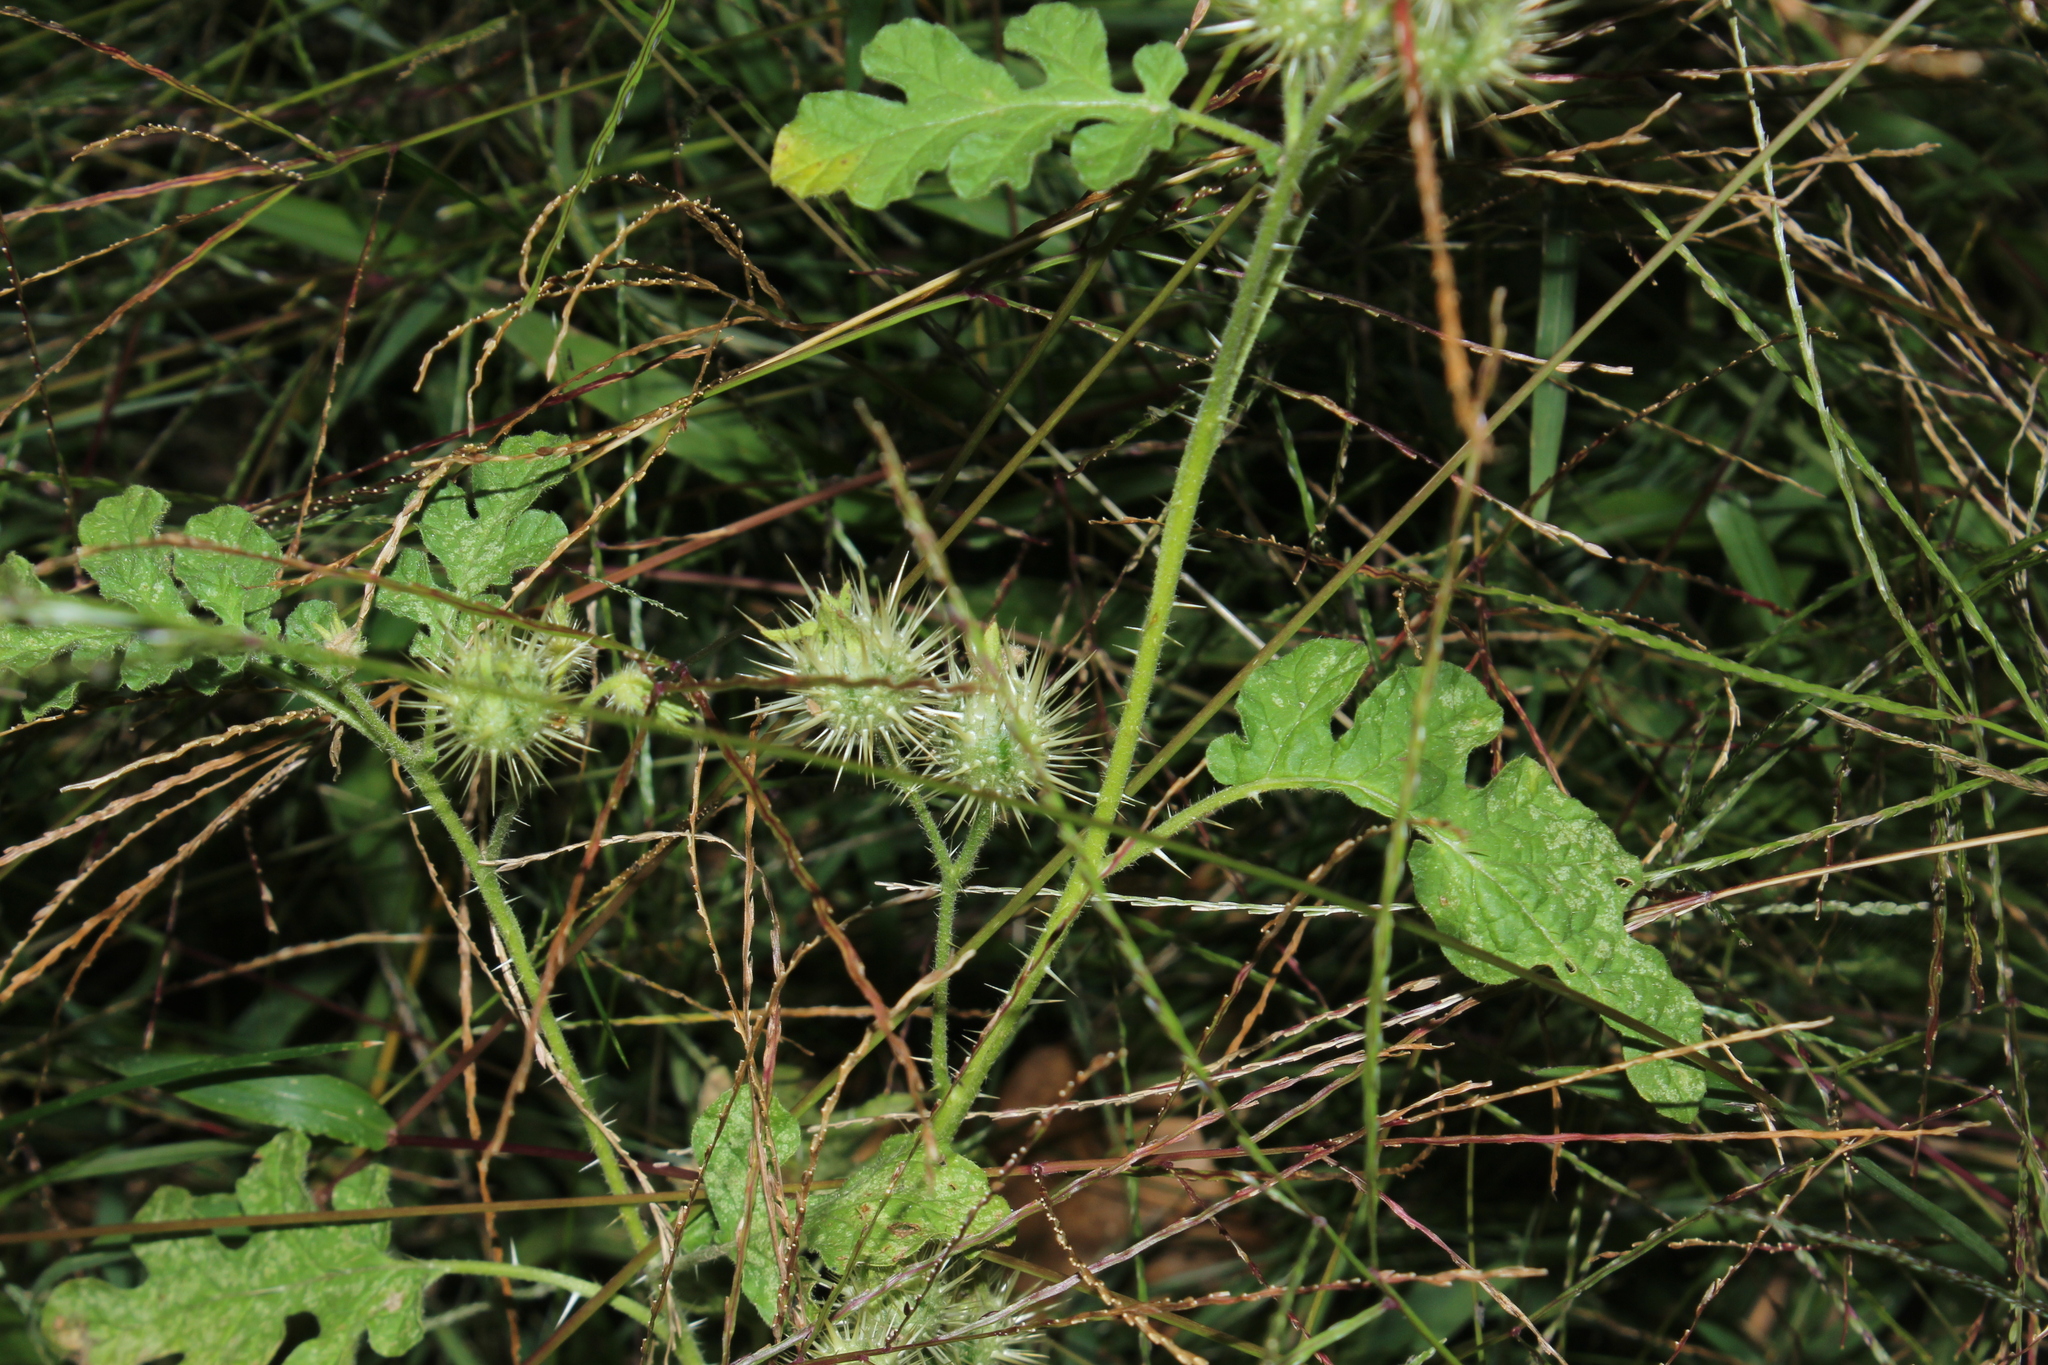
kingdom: Plantae
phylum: Tracheophyta
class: Magnoliopsida
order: Solanales
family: Solanaceae
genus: Solanum
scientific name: Solanum angustifolium
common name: Buffalobur nightshade
